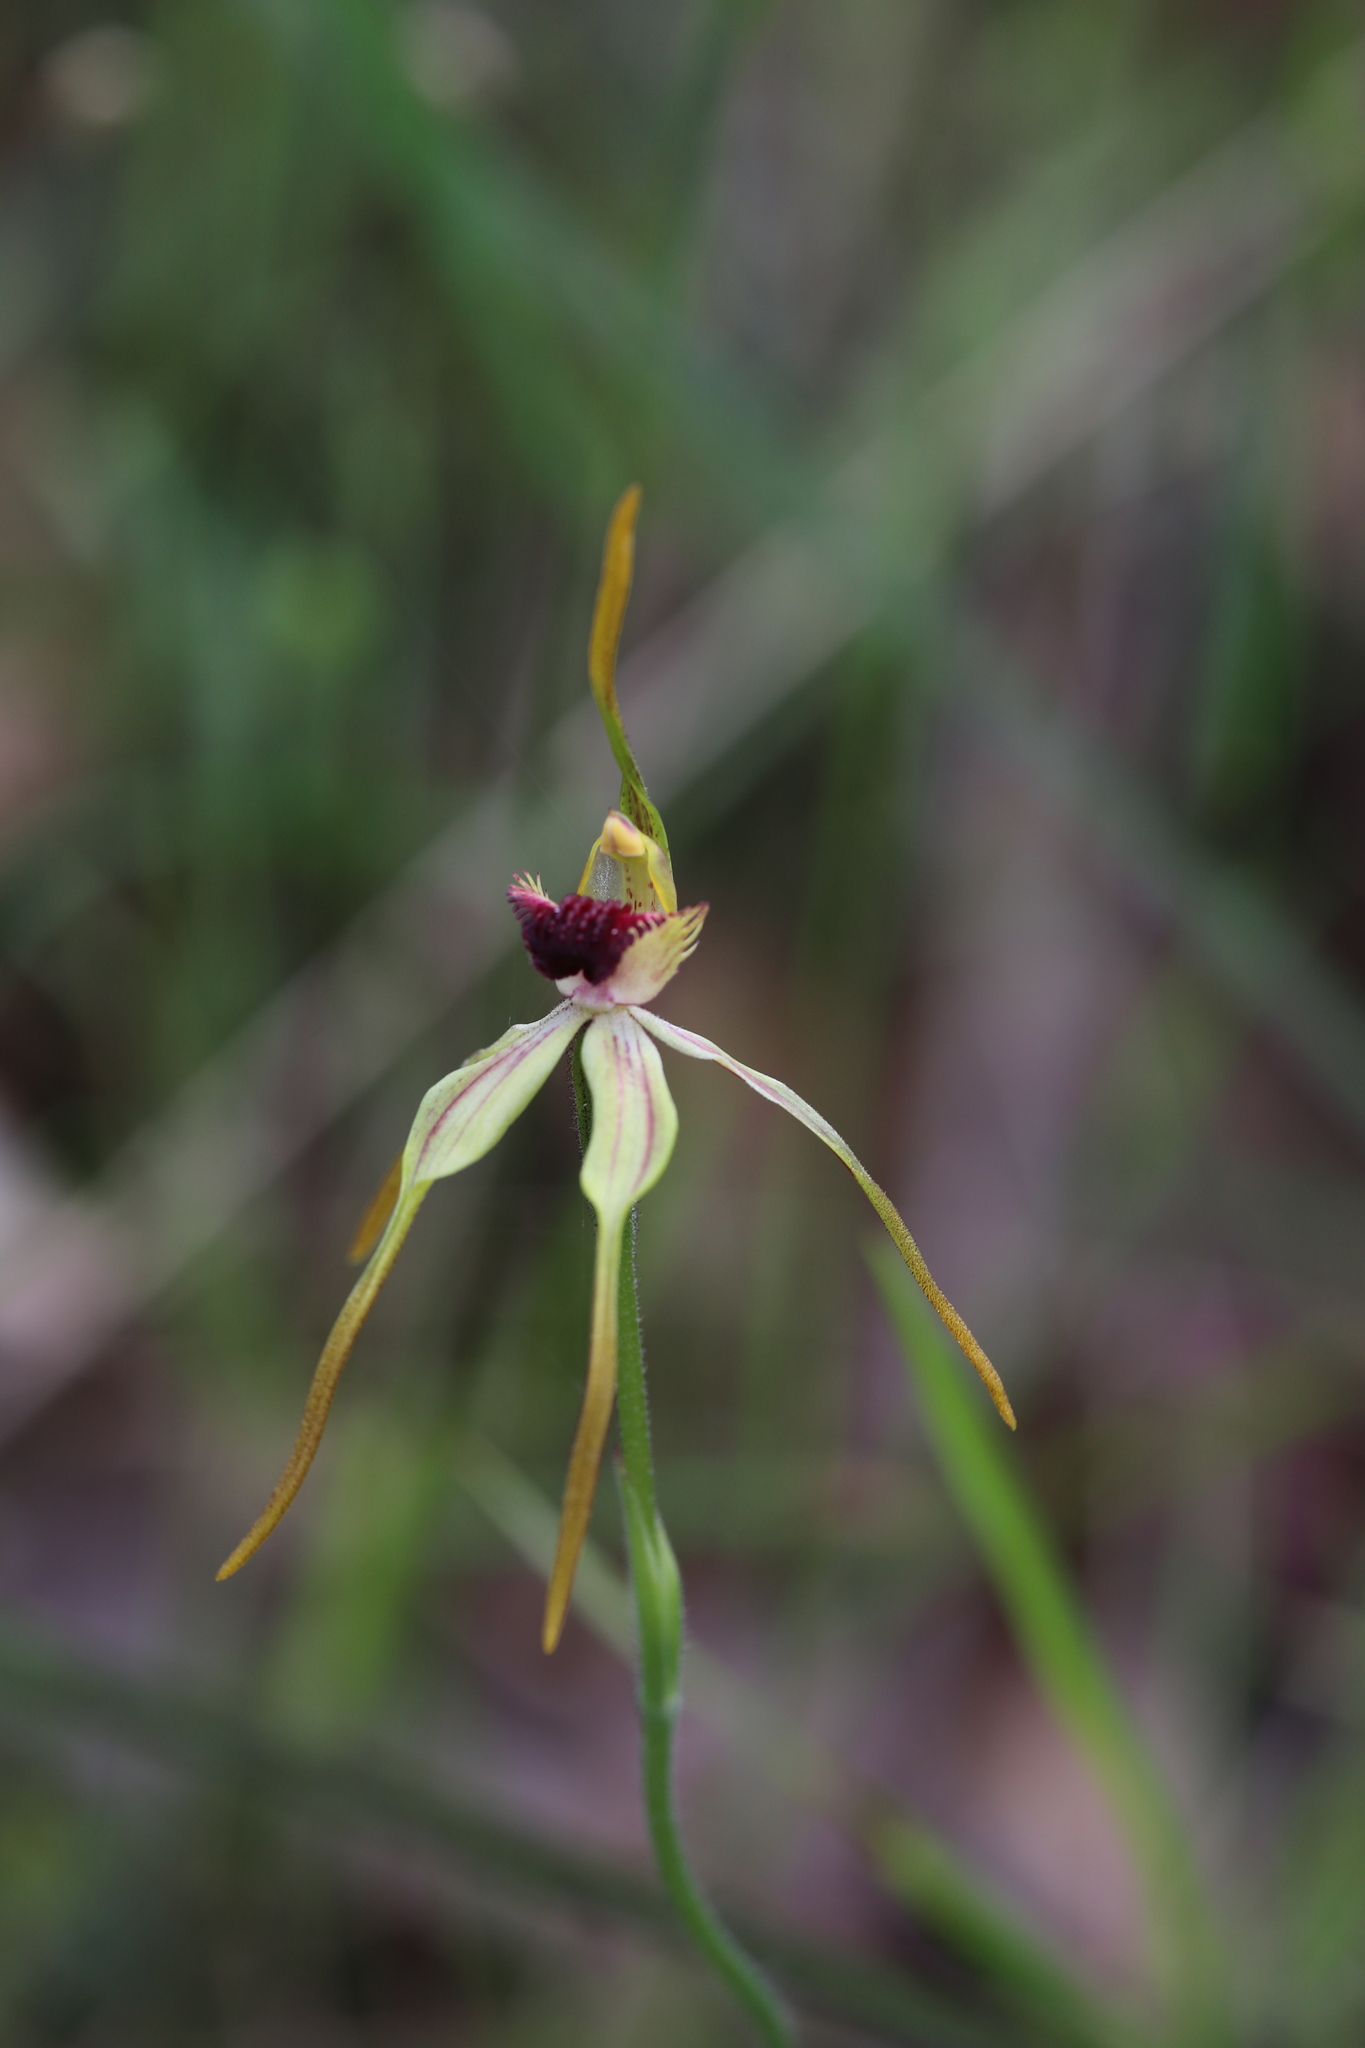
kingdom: Plantae
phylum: Tracheophyta
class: Liliopsida
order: Asparagales
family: Orchidaceae
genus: Caladenia
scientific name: Caladenia longiclavata
